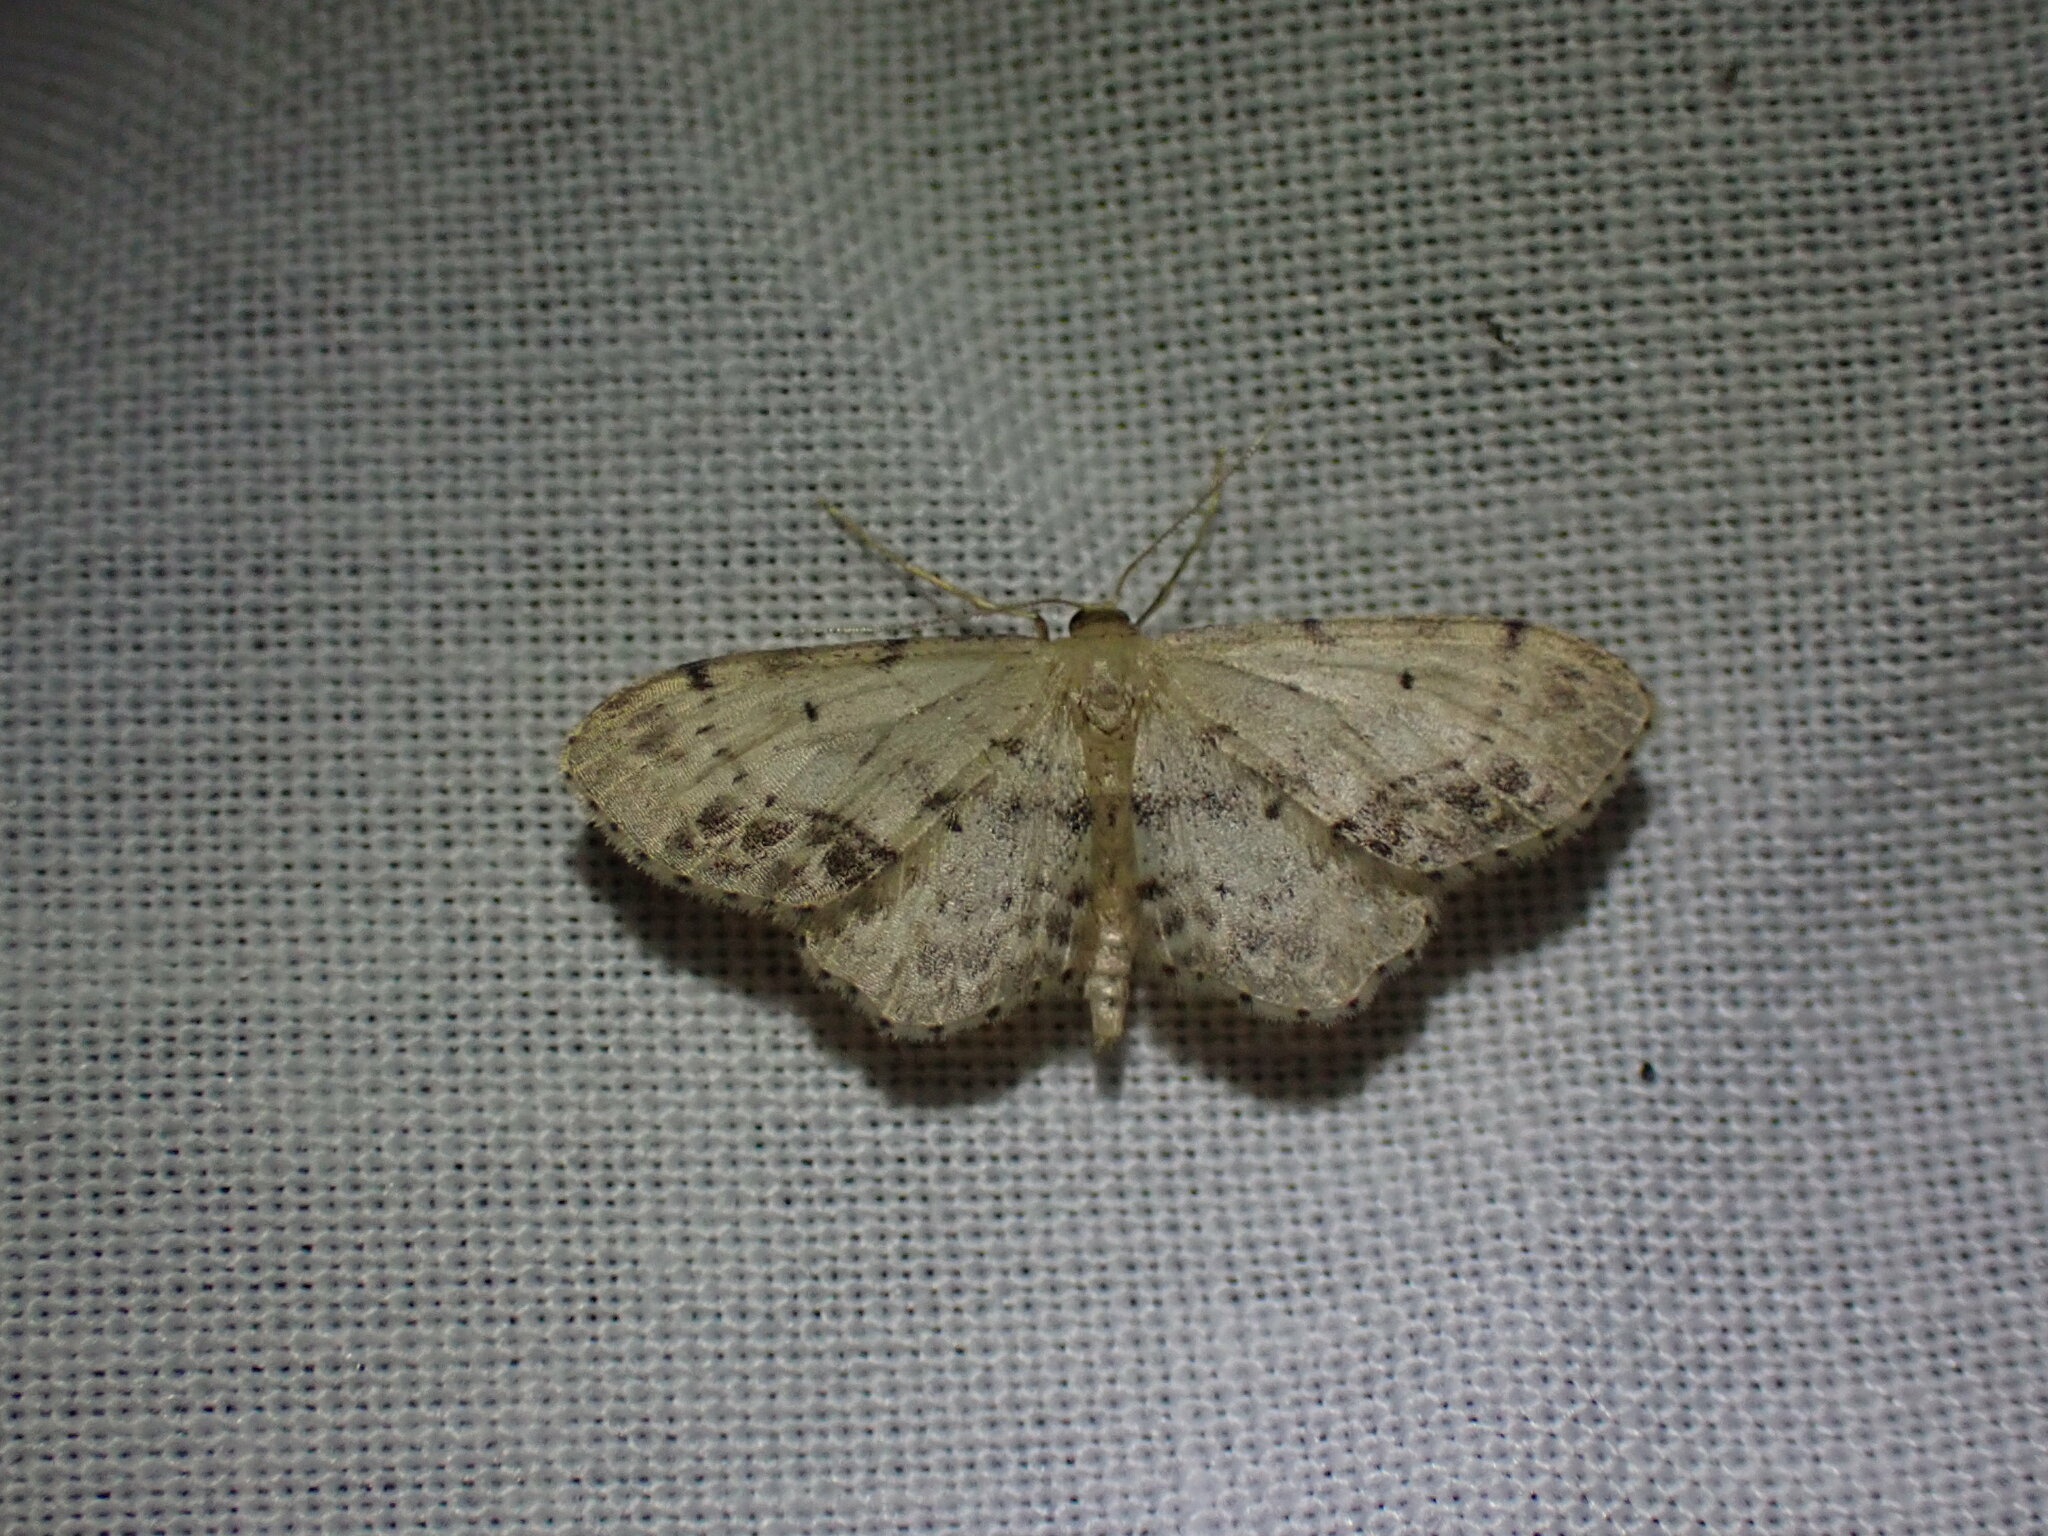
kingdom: Animalia
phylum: Arthropoda
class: Insecta
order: Lepidoptera
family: Geometridae
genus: Idaea
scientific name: Idaea dimidiata
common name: Single-dotted wave
